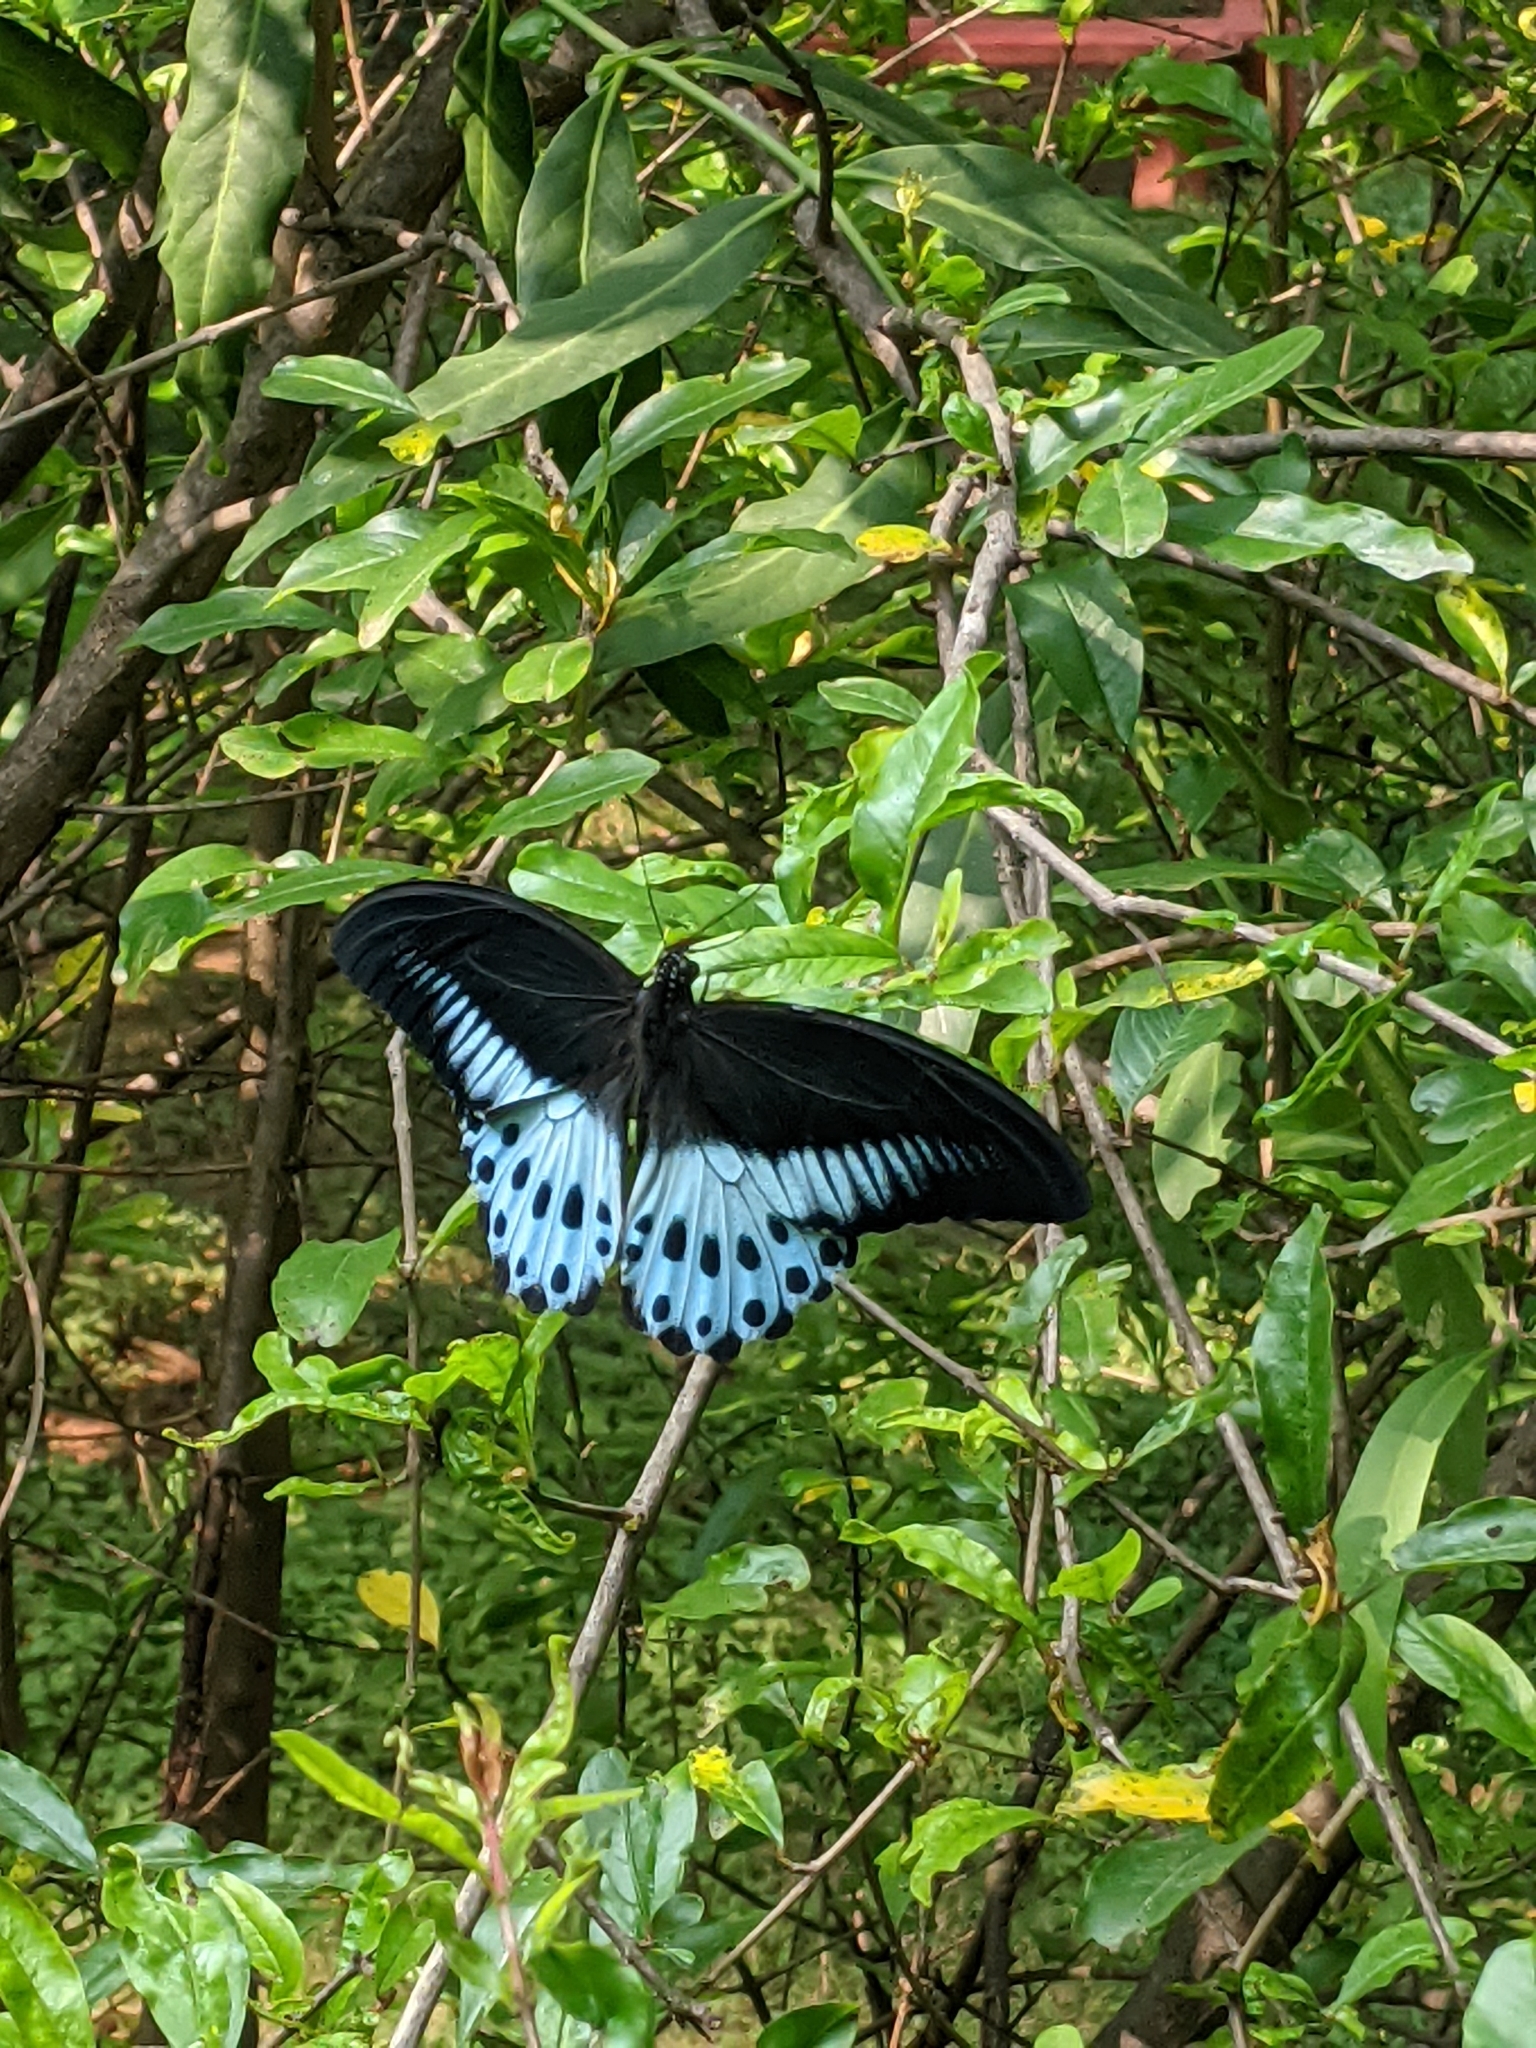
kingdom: Animalia
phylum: Arthropoda
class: Insecta
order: Lepidoptera
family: Papilionidae
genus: Papilio
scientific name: Papilio memnon
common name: Great mormon
